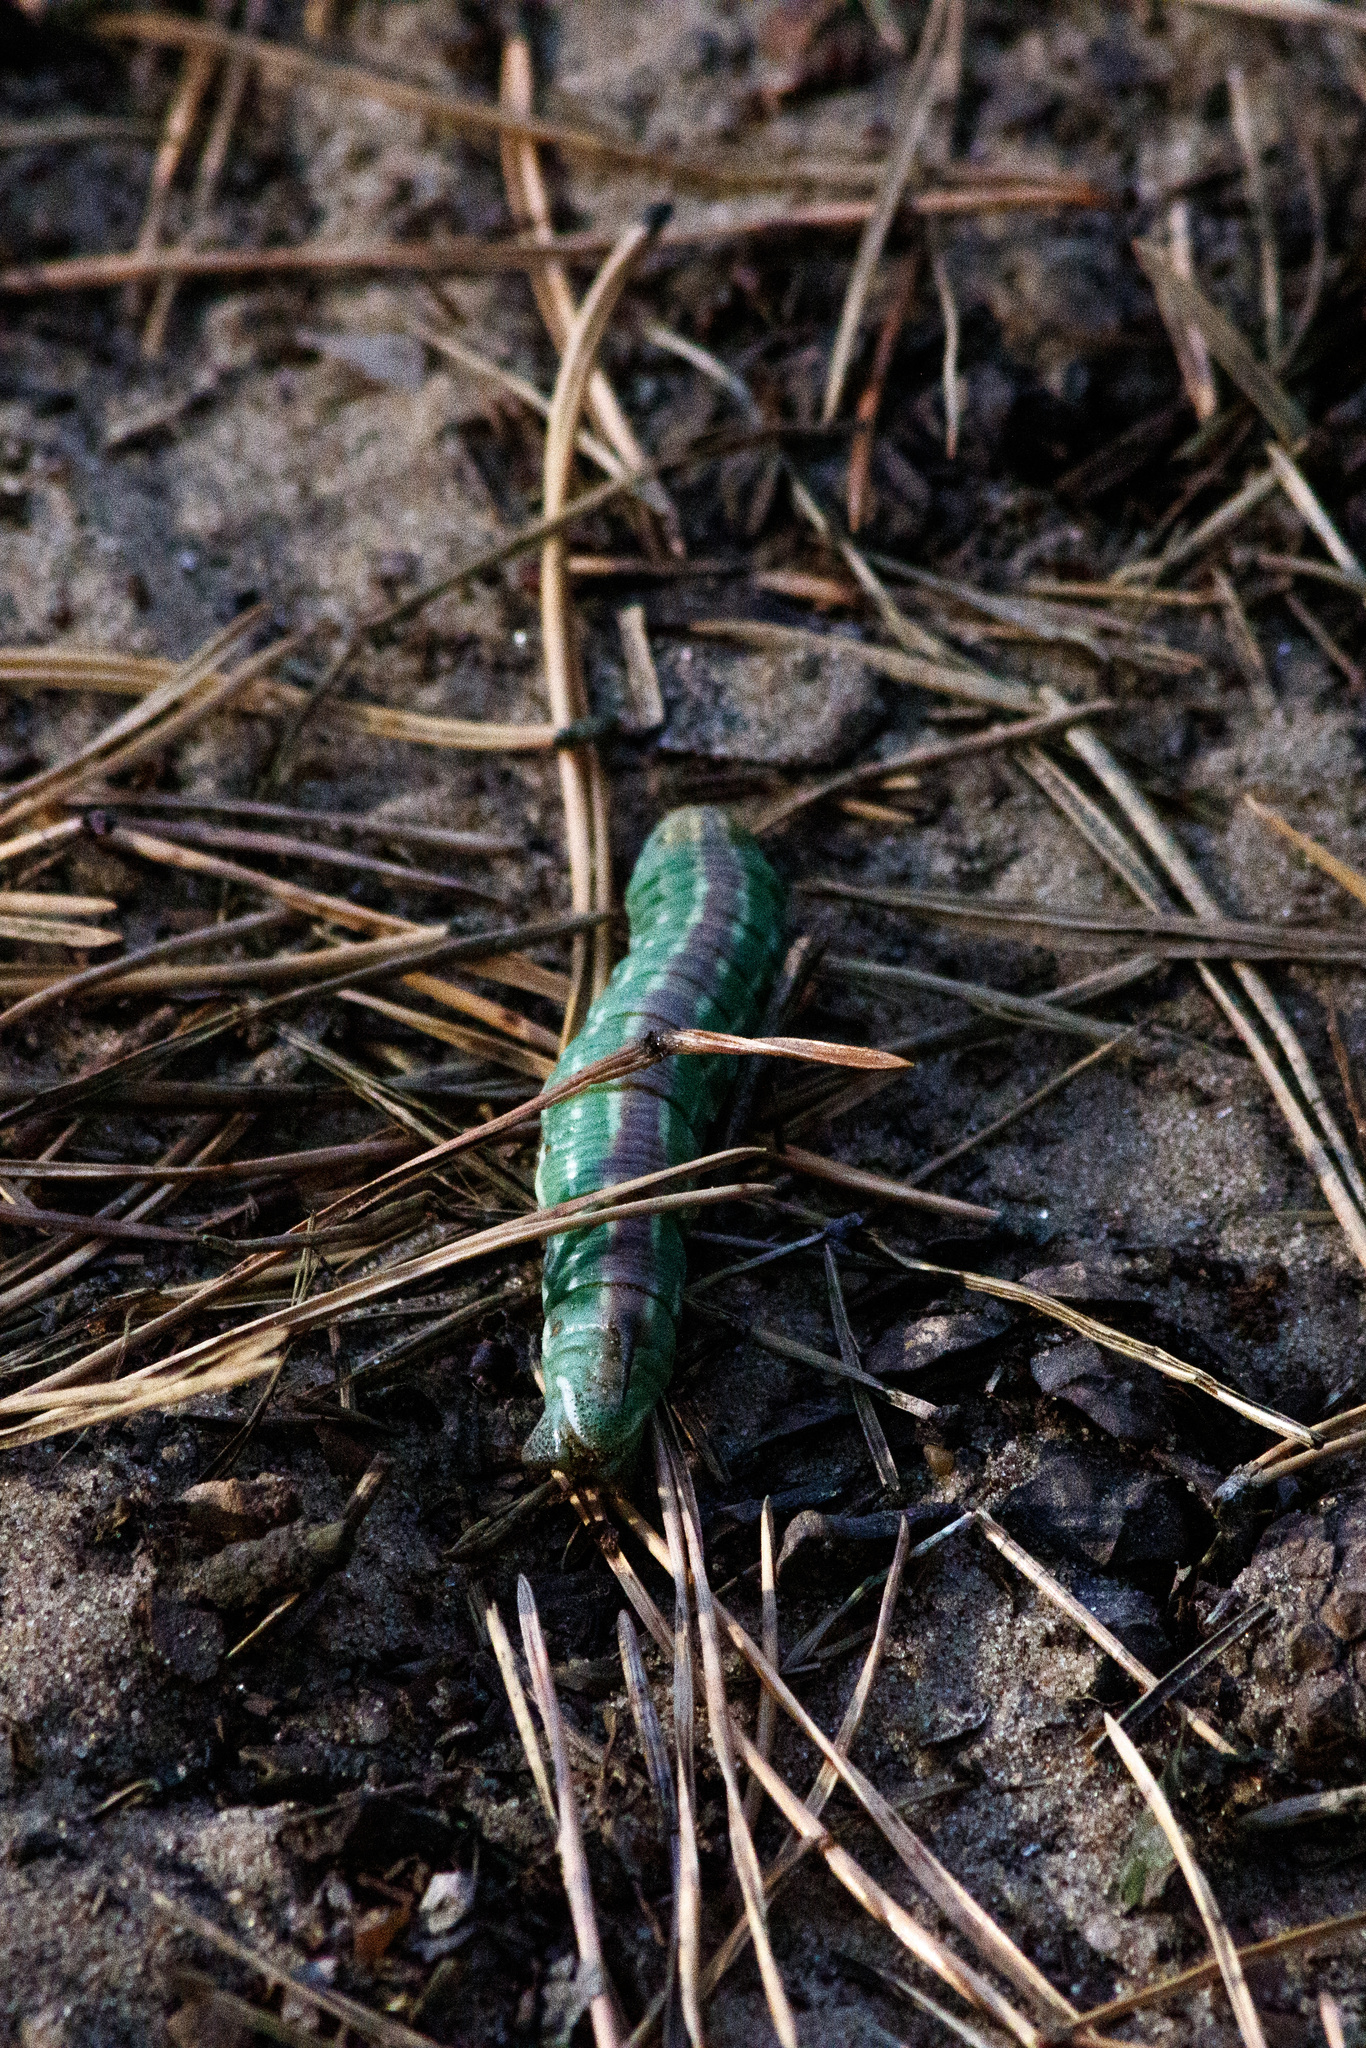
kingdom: Animalia
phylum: Arthropoda
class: Insecta
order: Lepidoptera
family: Sphingidae
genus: Sphinx
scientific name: Sphinx pinastri
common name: Pine hawk-moth
